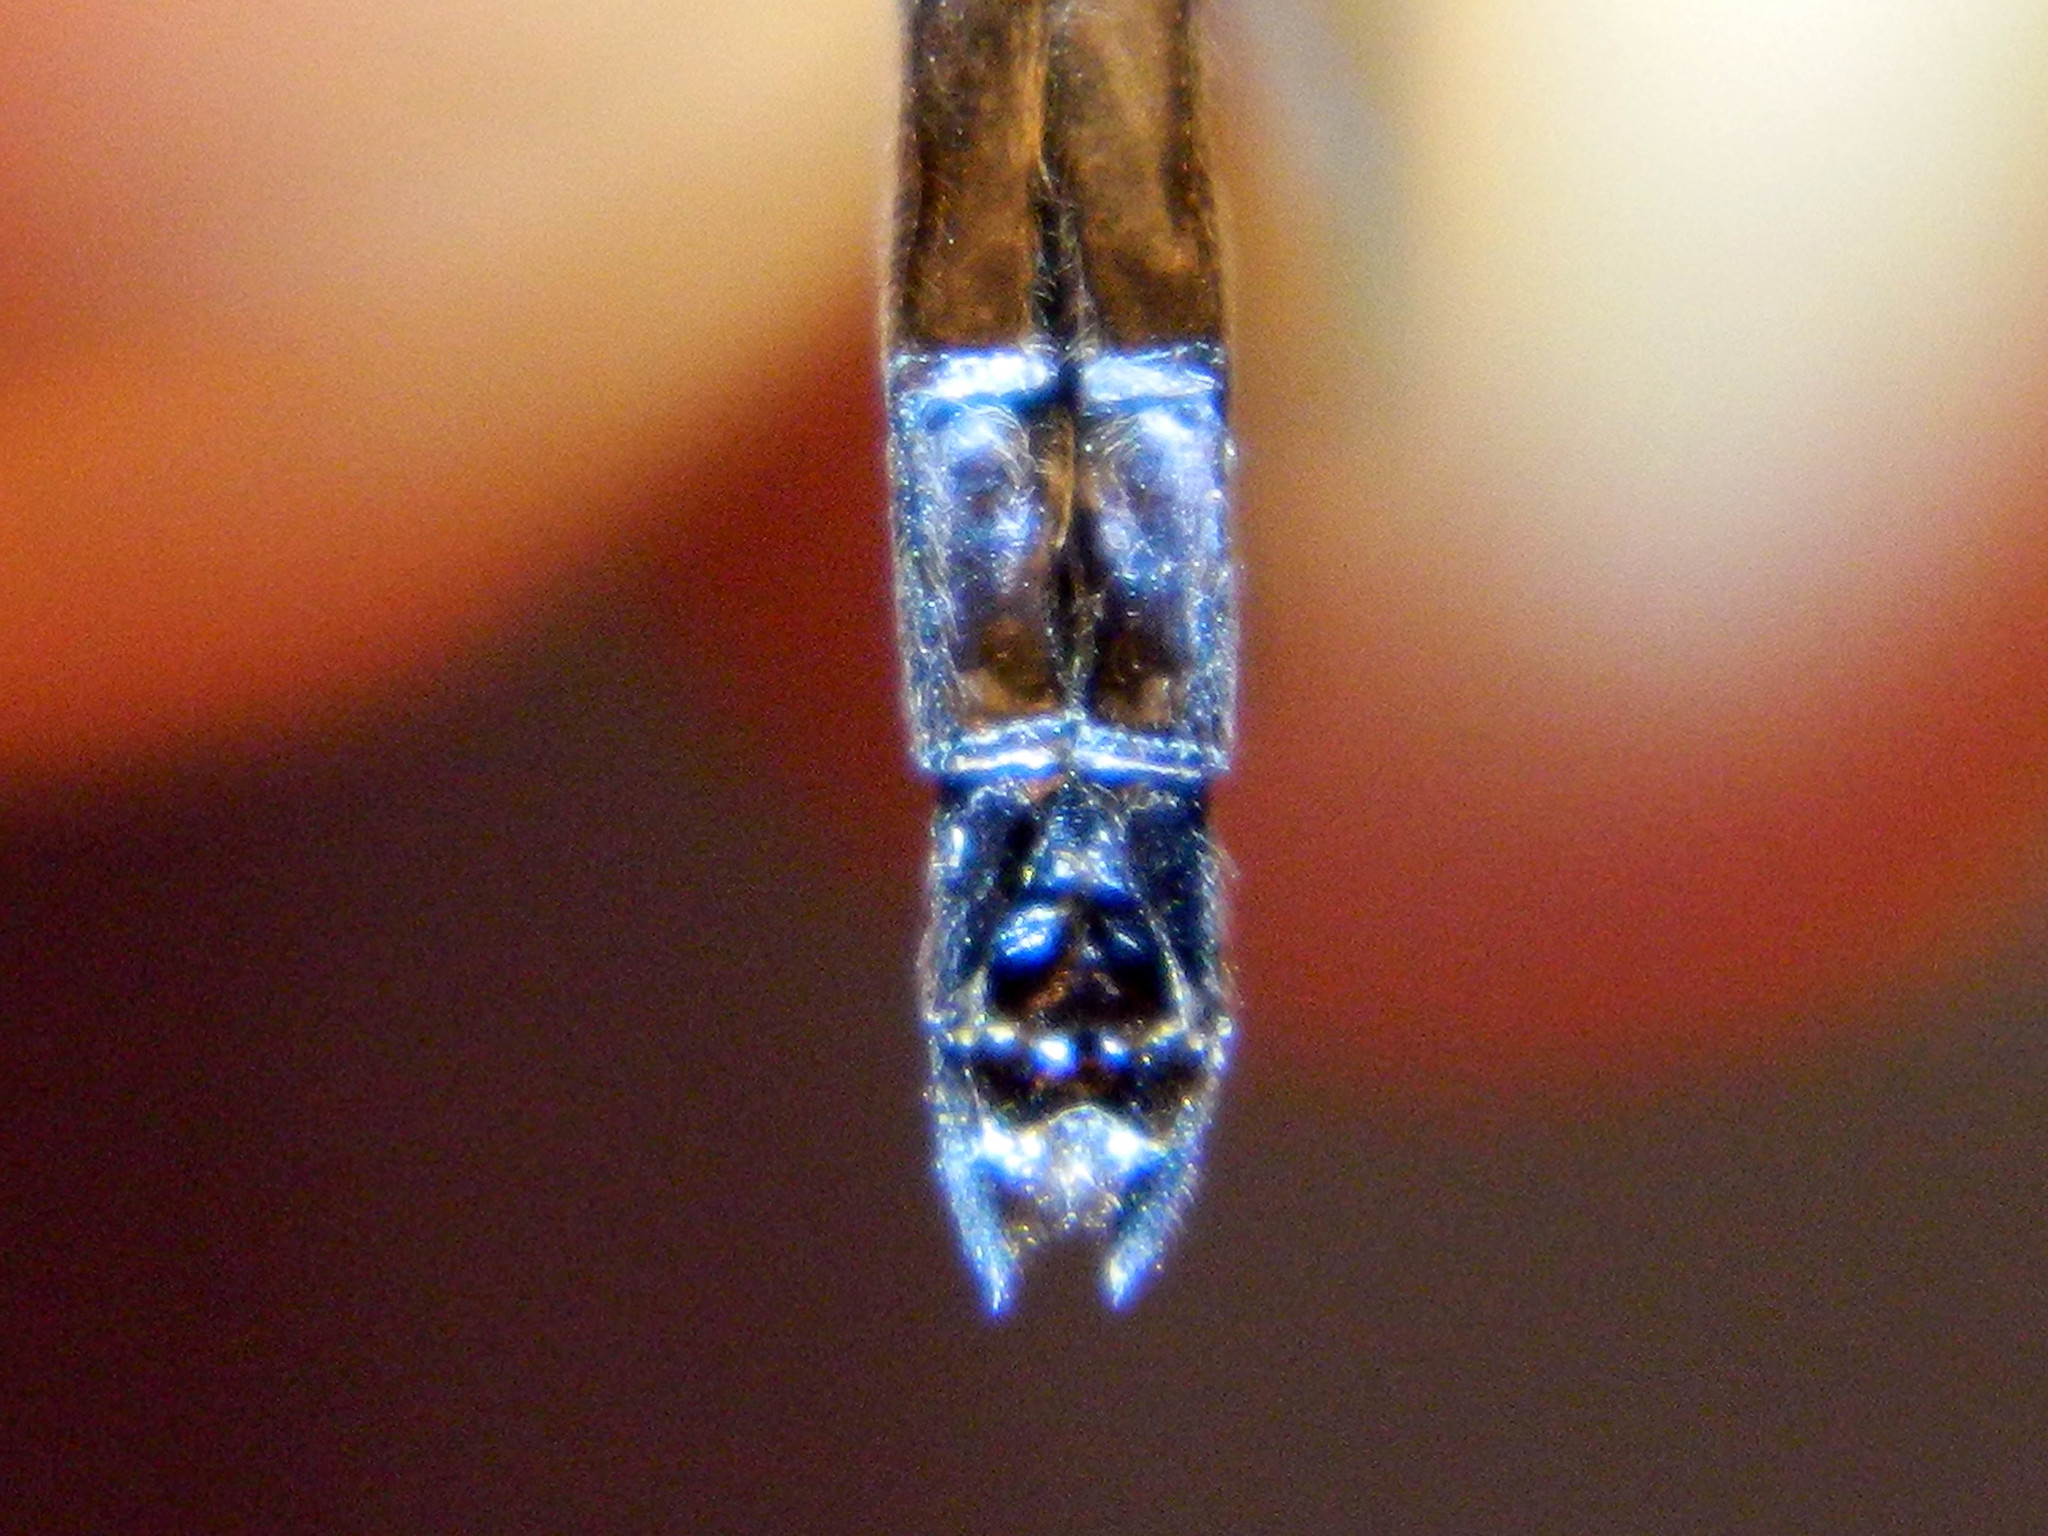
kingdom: Animalia
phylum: Arthropoda
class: Insecta
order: Odonata
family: Libellulidae
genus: Leucorrhinia
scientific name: Leucorrhinia glacialis
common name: Crimson-ringed whiteface
